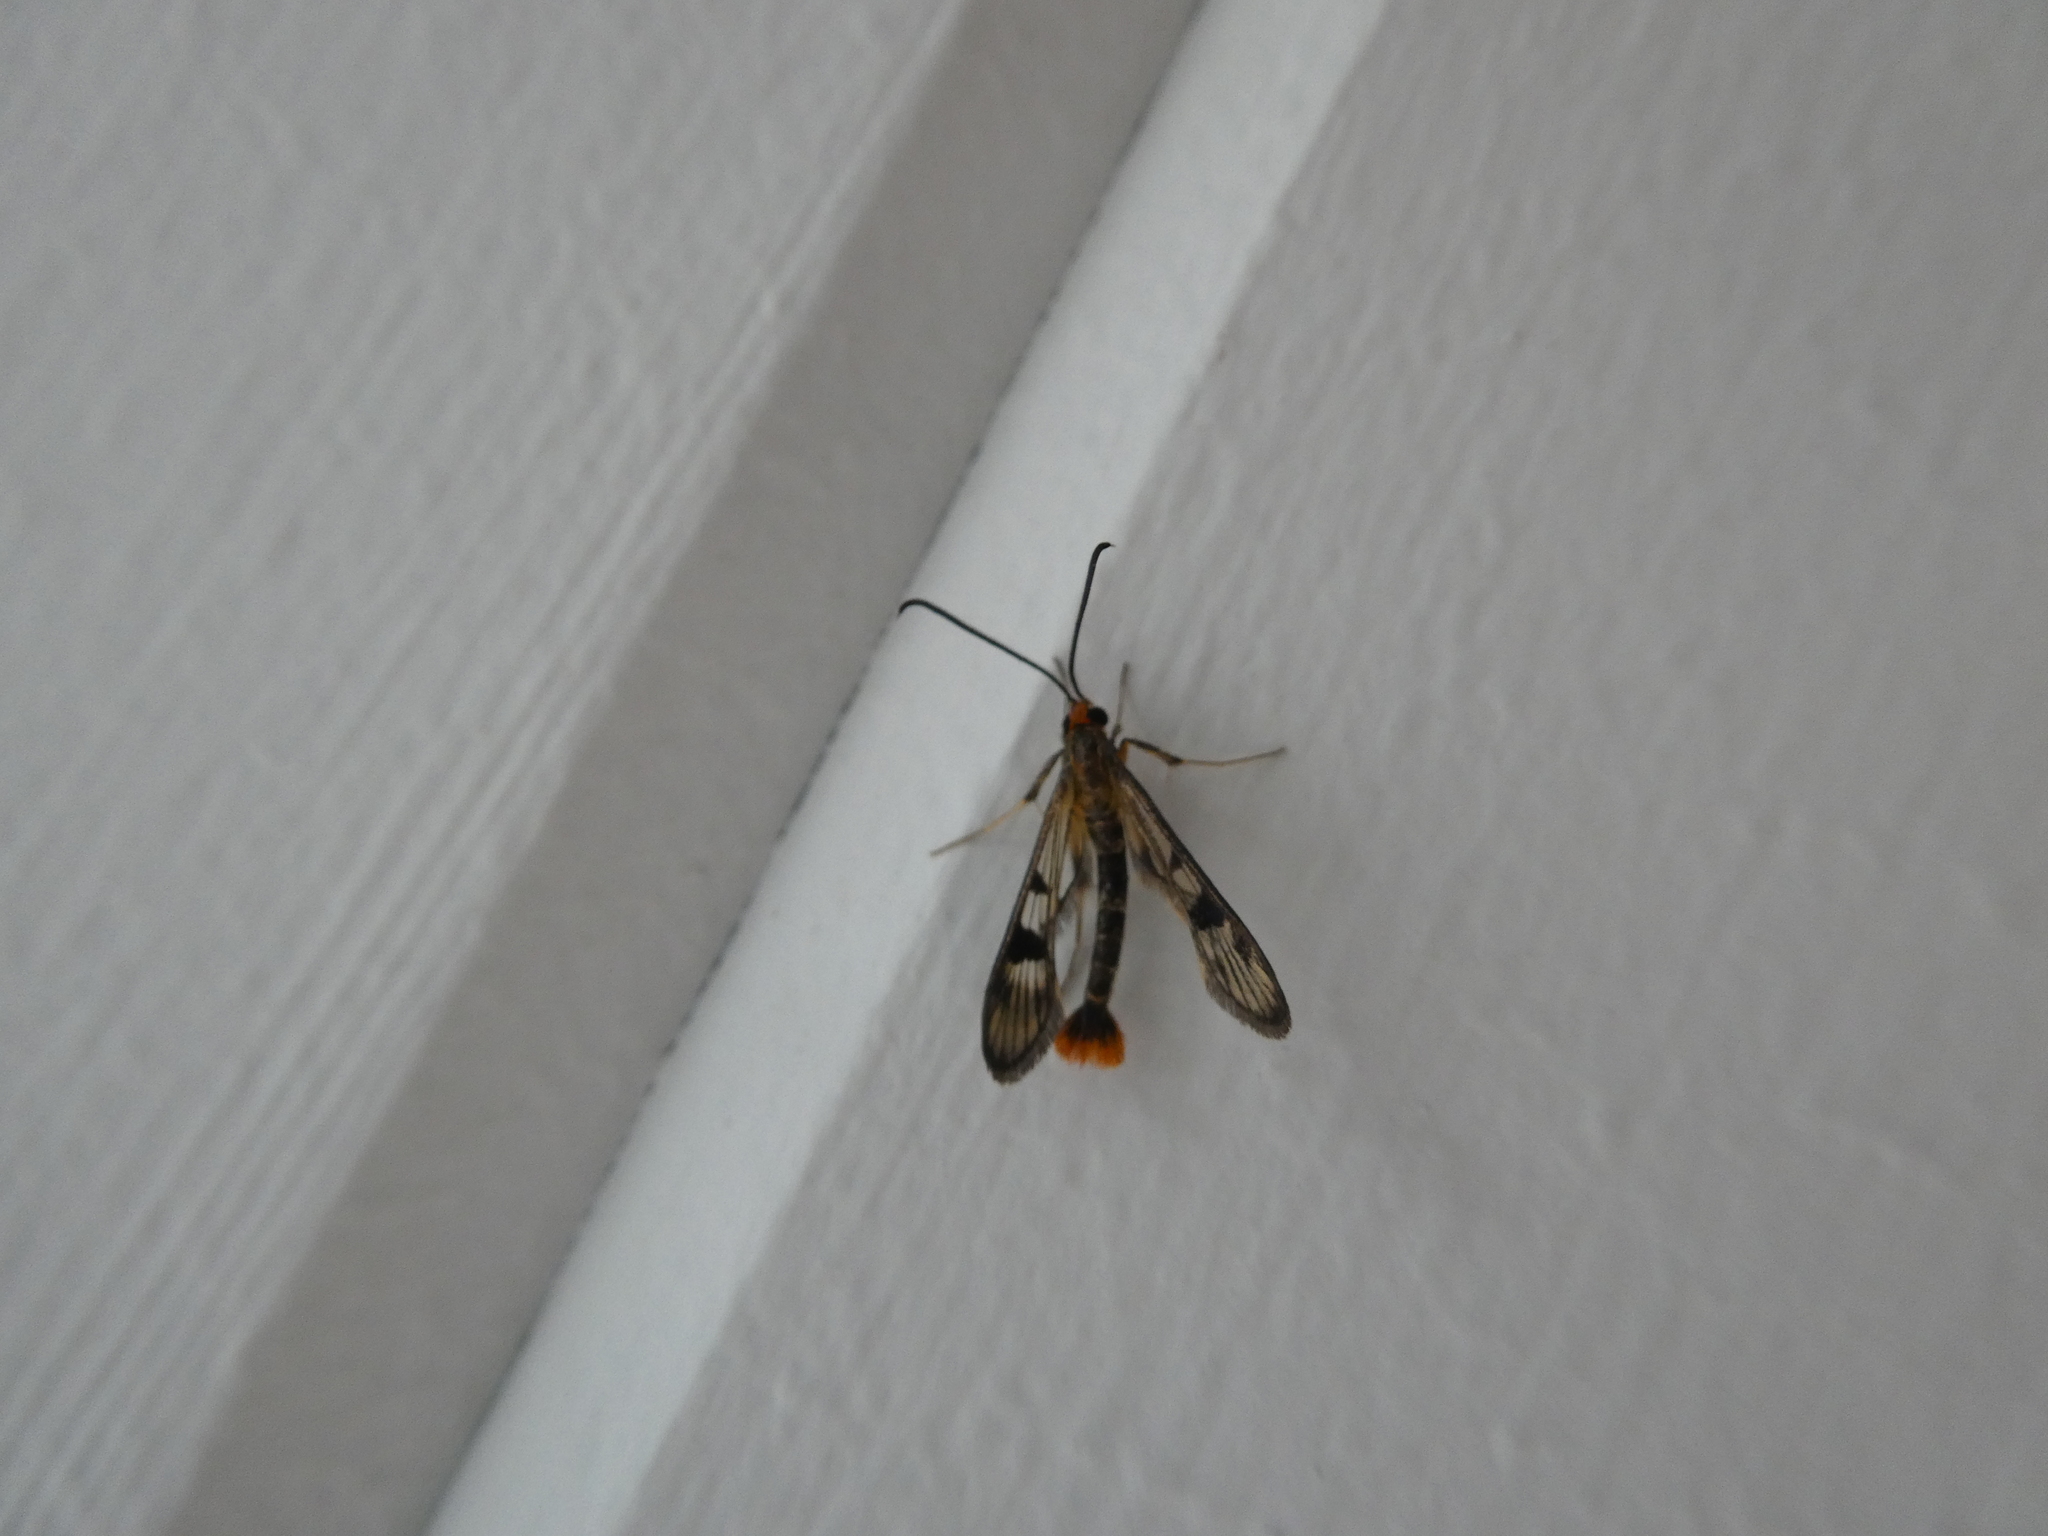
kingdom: Animalia
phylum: Arthropoda
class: Insecta
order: Lepidoptera
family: Sesiidae
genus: Synanthedon
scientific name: Synanthedon acerni
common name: Maple callus borer moth
